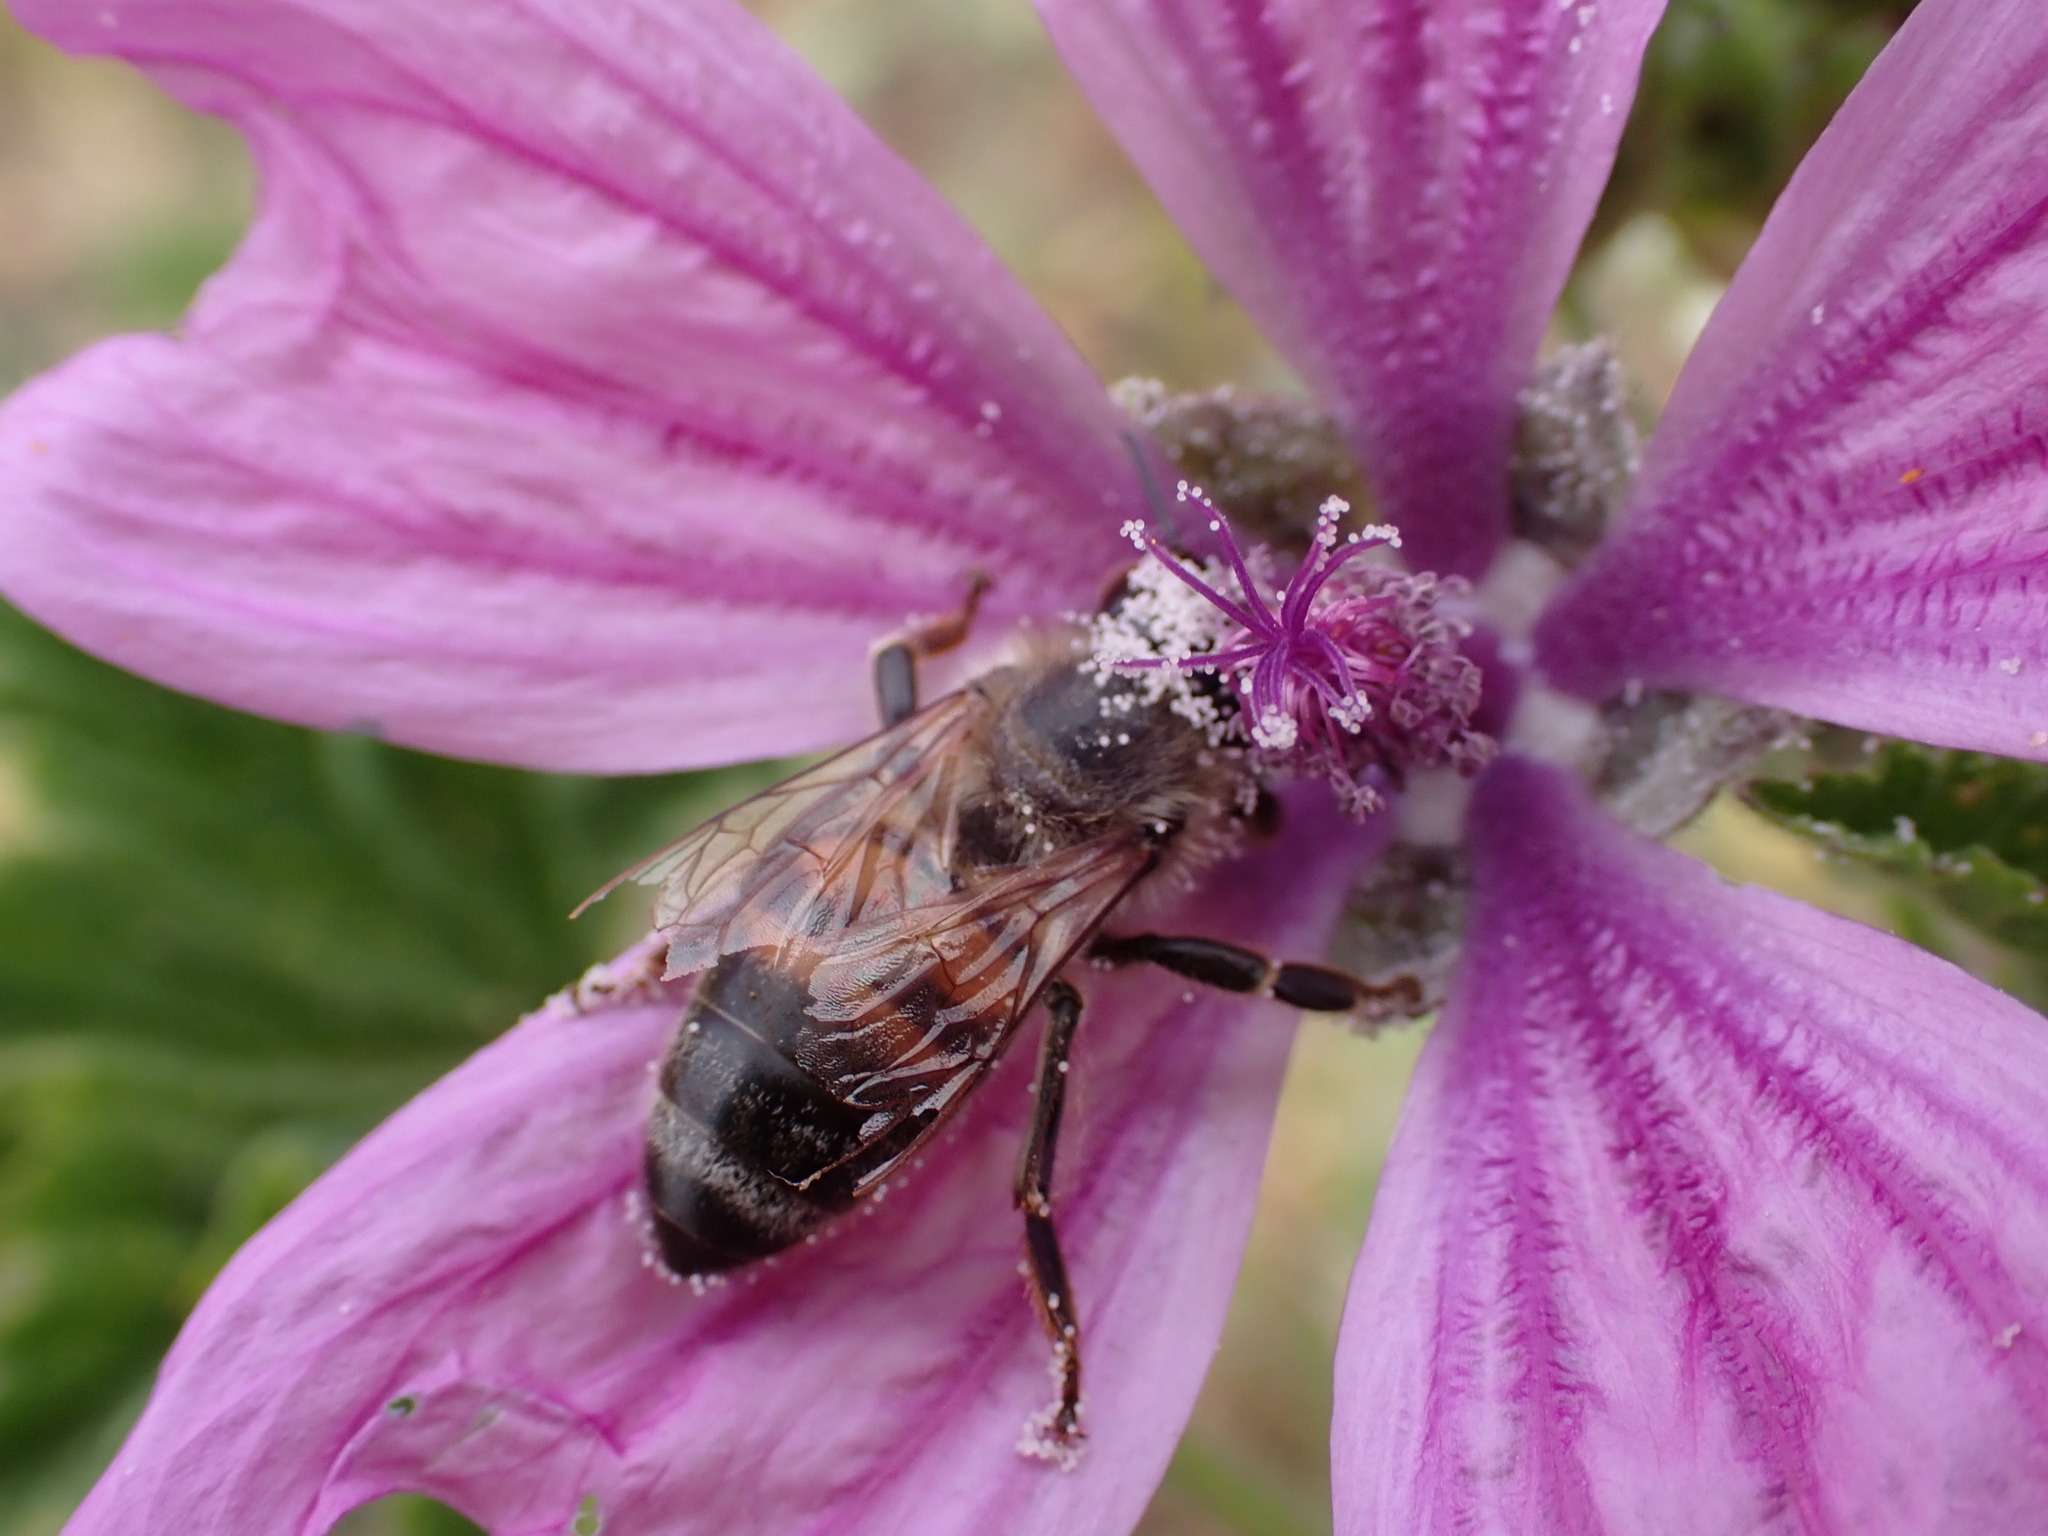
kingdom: Animalia
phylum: Arthropoda
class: Insecta
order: Hymenoptera
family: Apidae
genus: Apis
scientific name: Apis mellifera
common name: Honey bee
